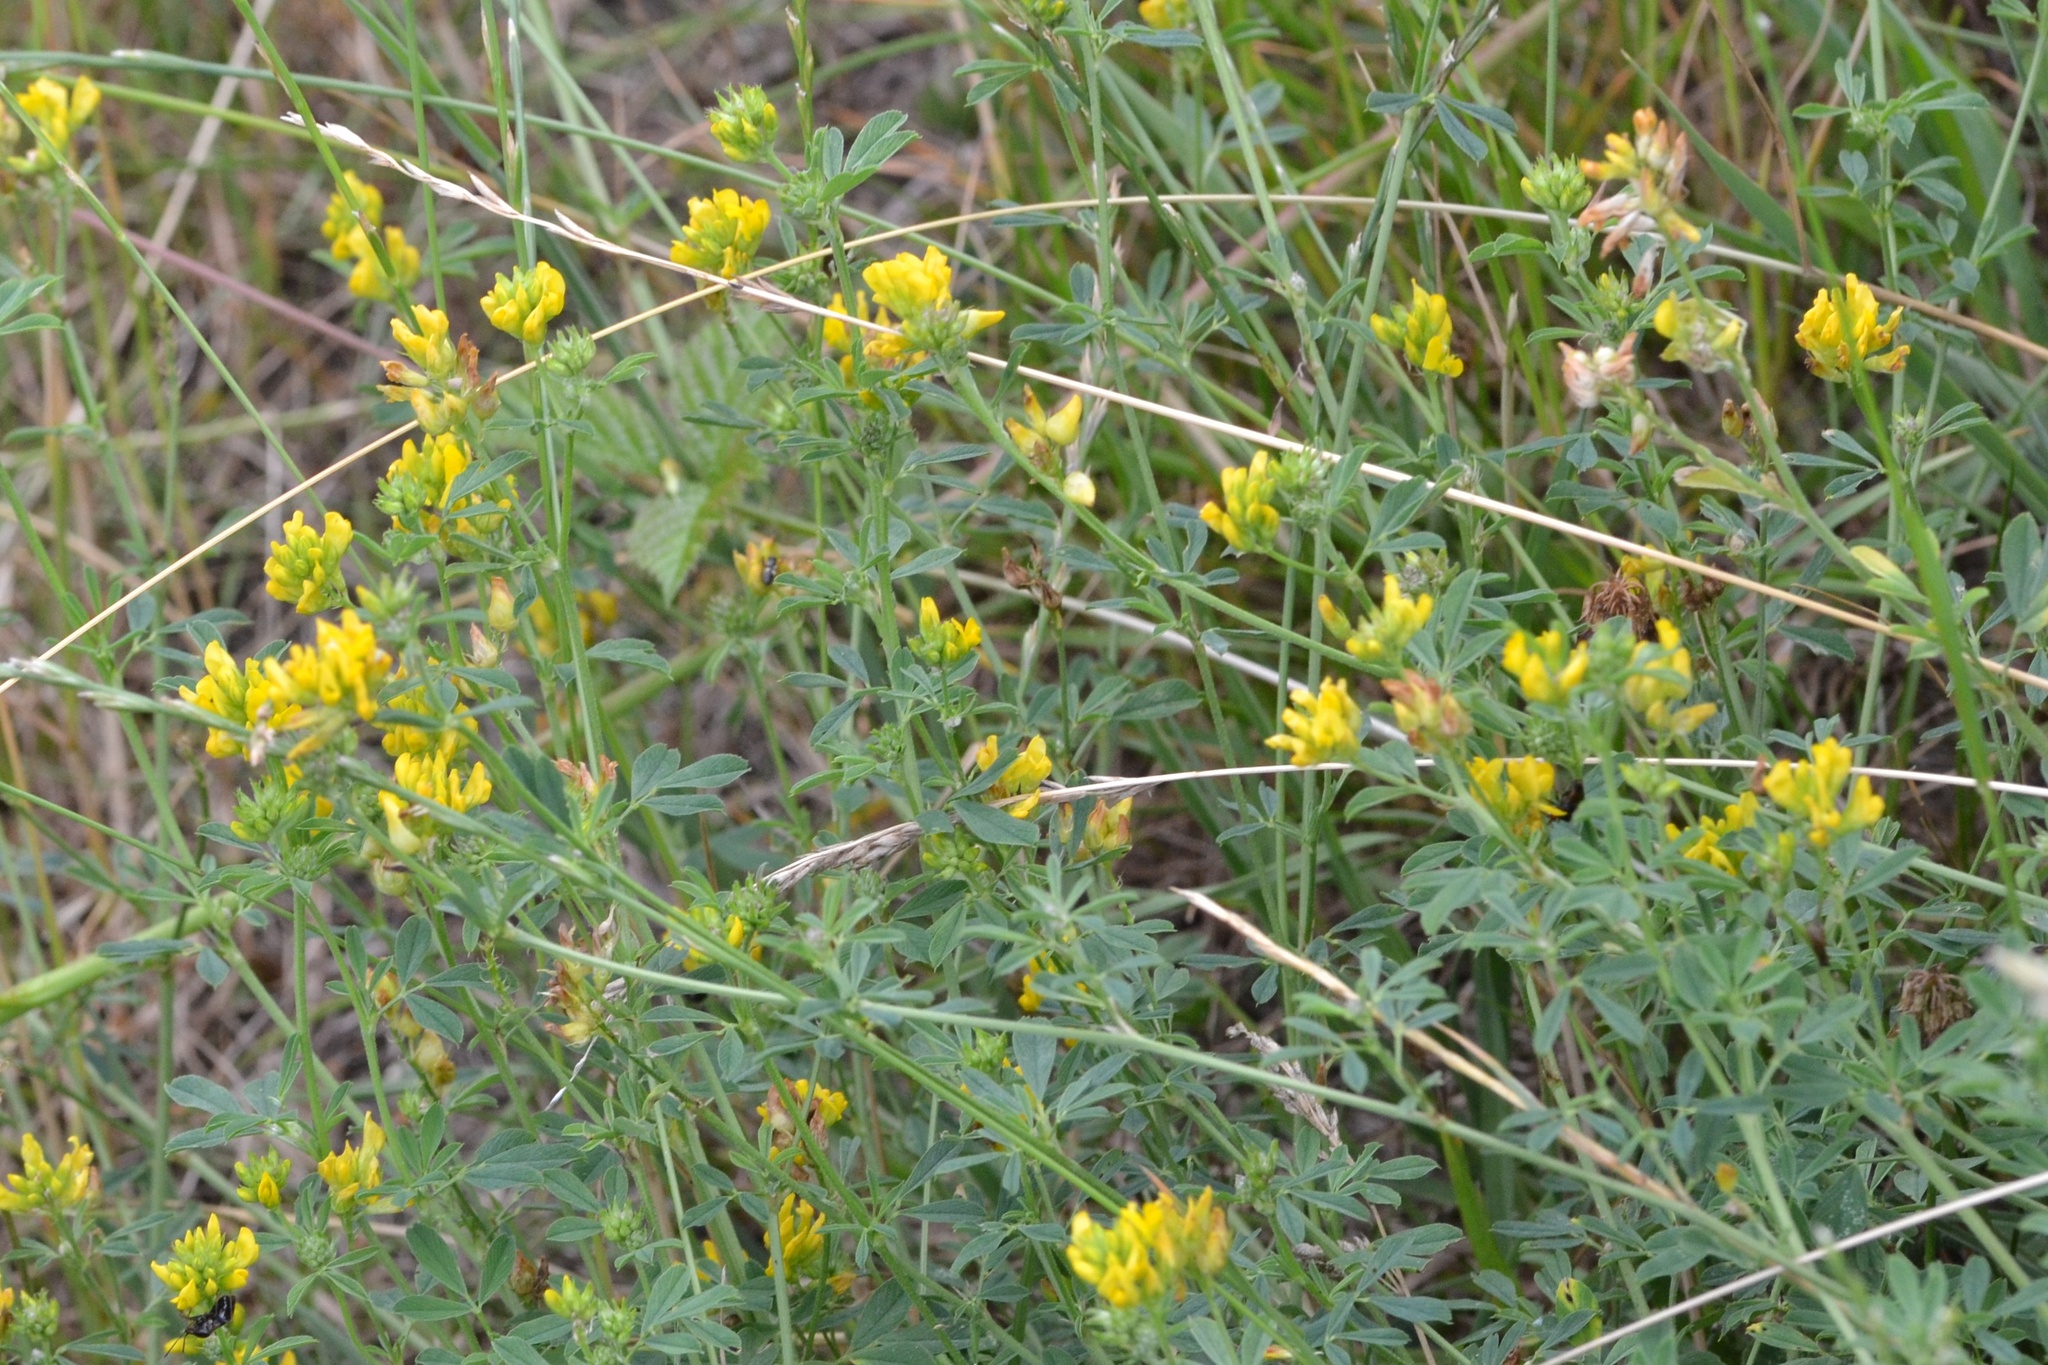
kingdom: Plantae
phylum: Tracheophyta
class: Magnoliopsida
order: Fabales
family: Fabaceae
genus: Medicago
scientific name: Medicago falcata
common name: Sickle medick
